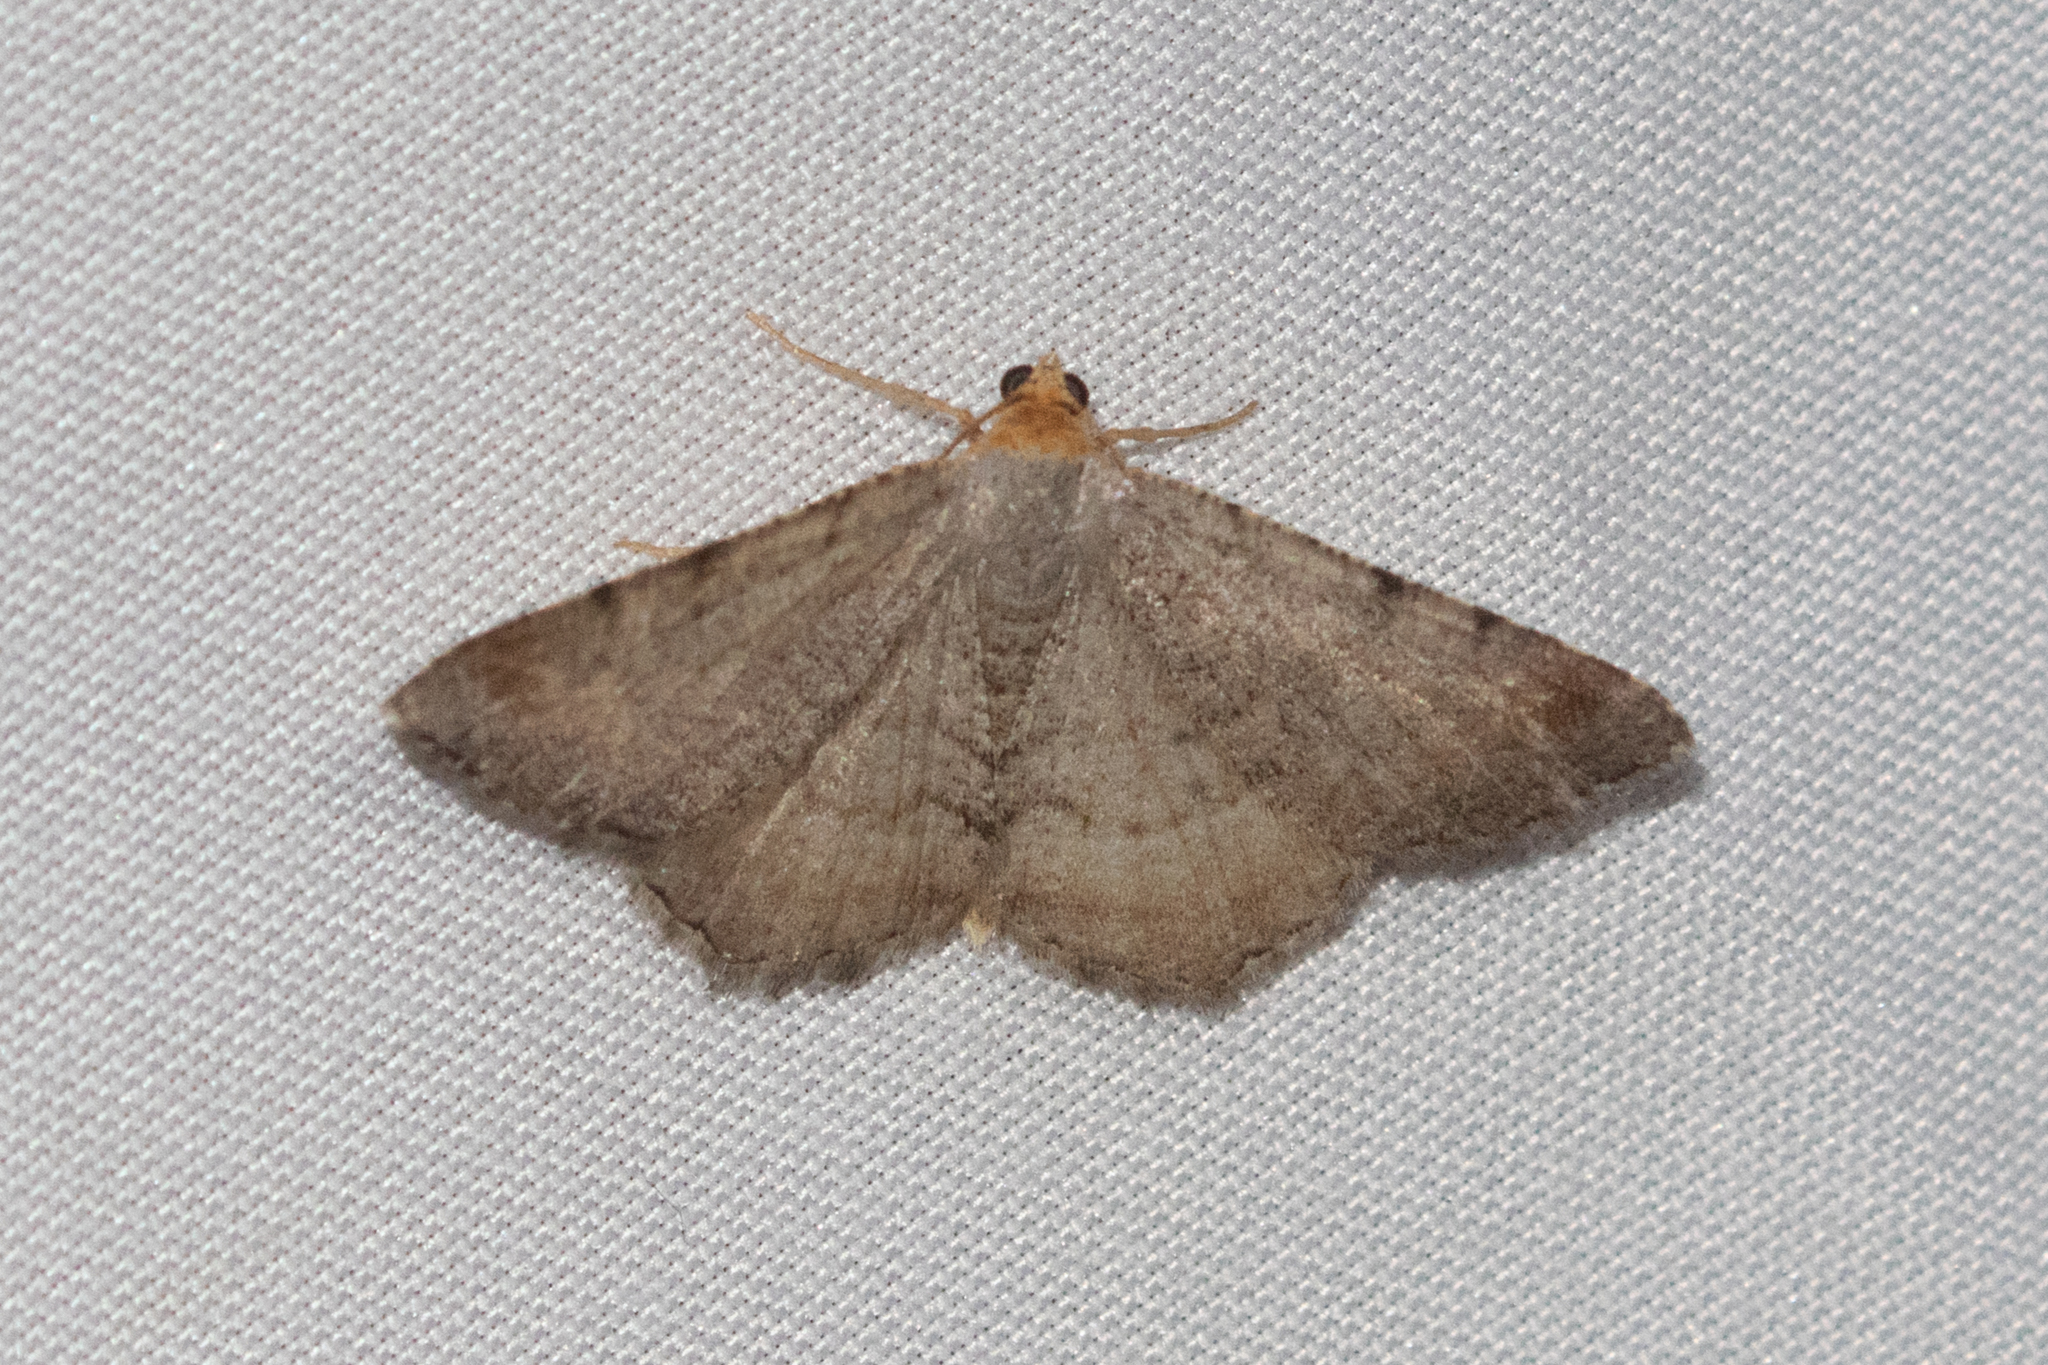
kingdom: Animalia
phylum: Arthropoda
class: Insecta
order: Lepidoptera
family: Geometridae
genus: Macaria
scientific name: Macaria minorata
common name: Minor angle moth
